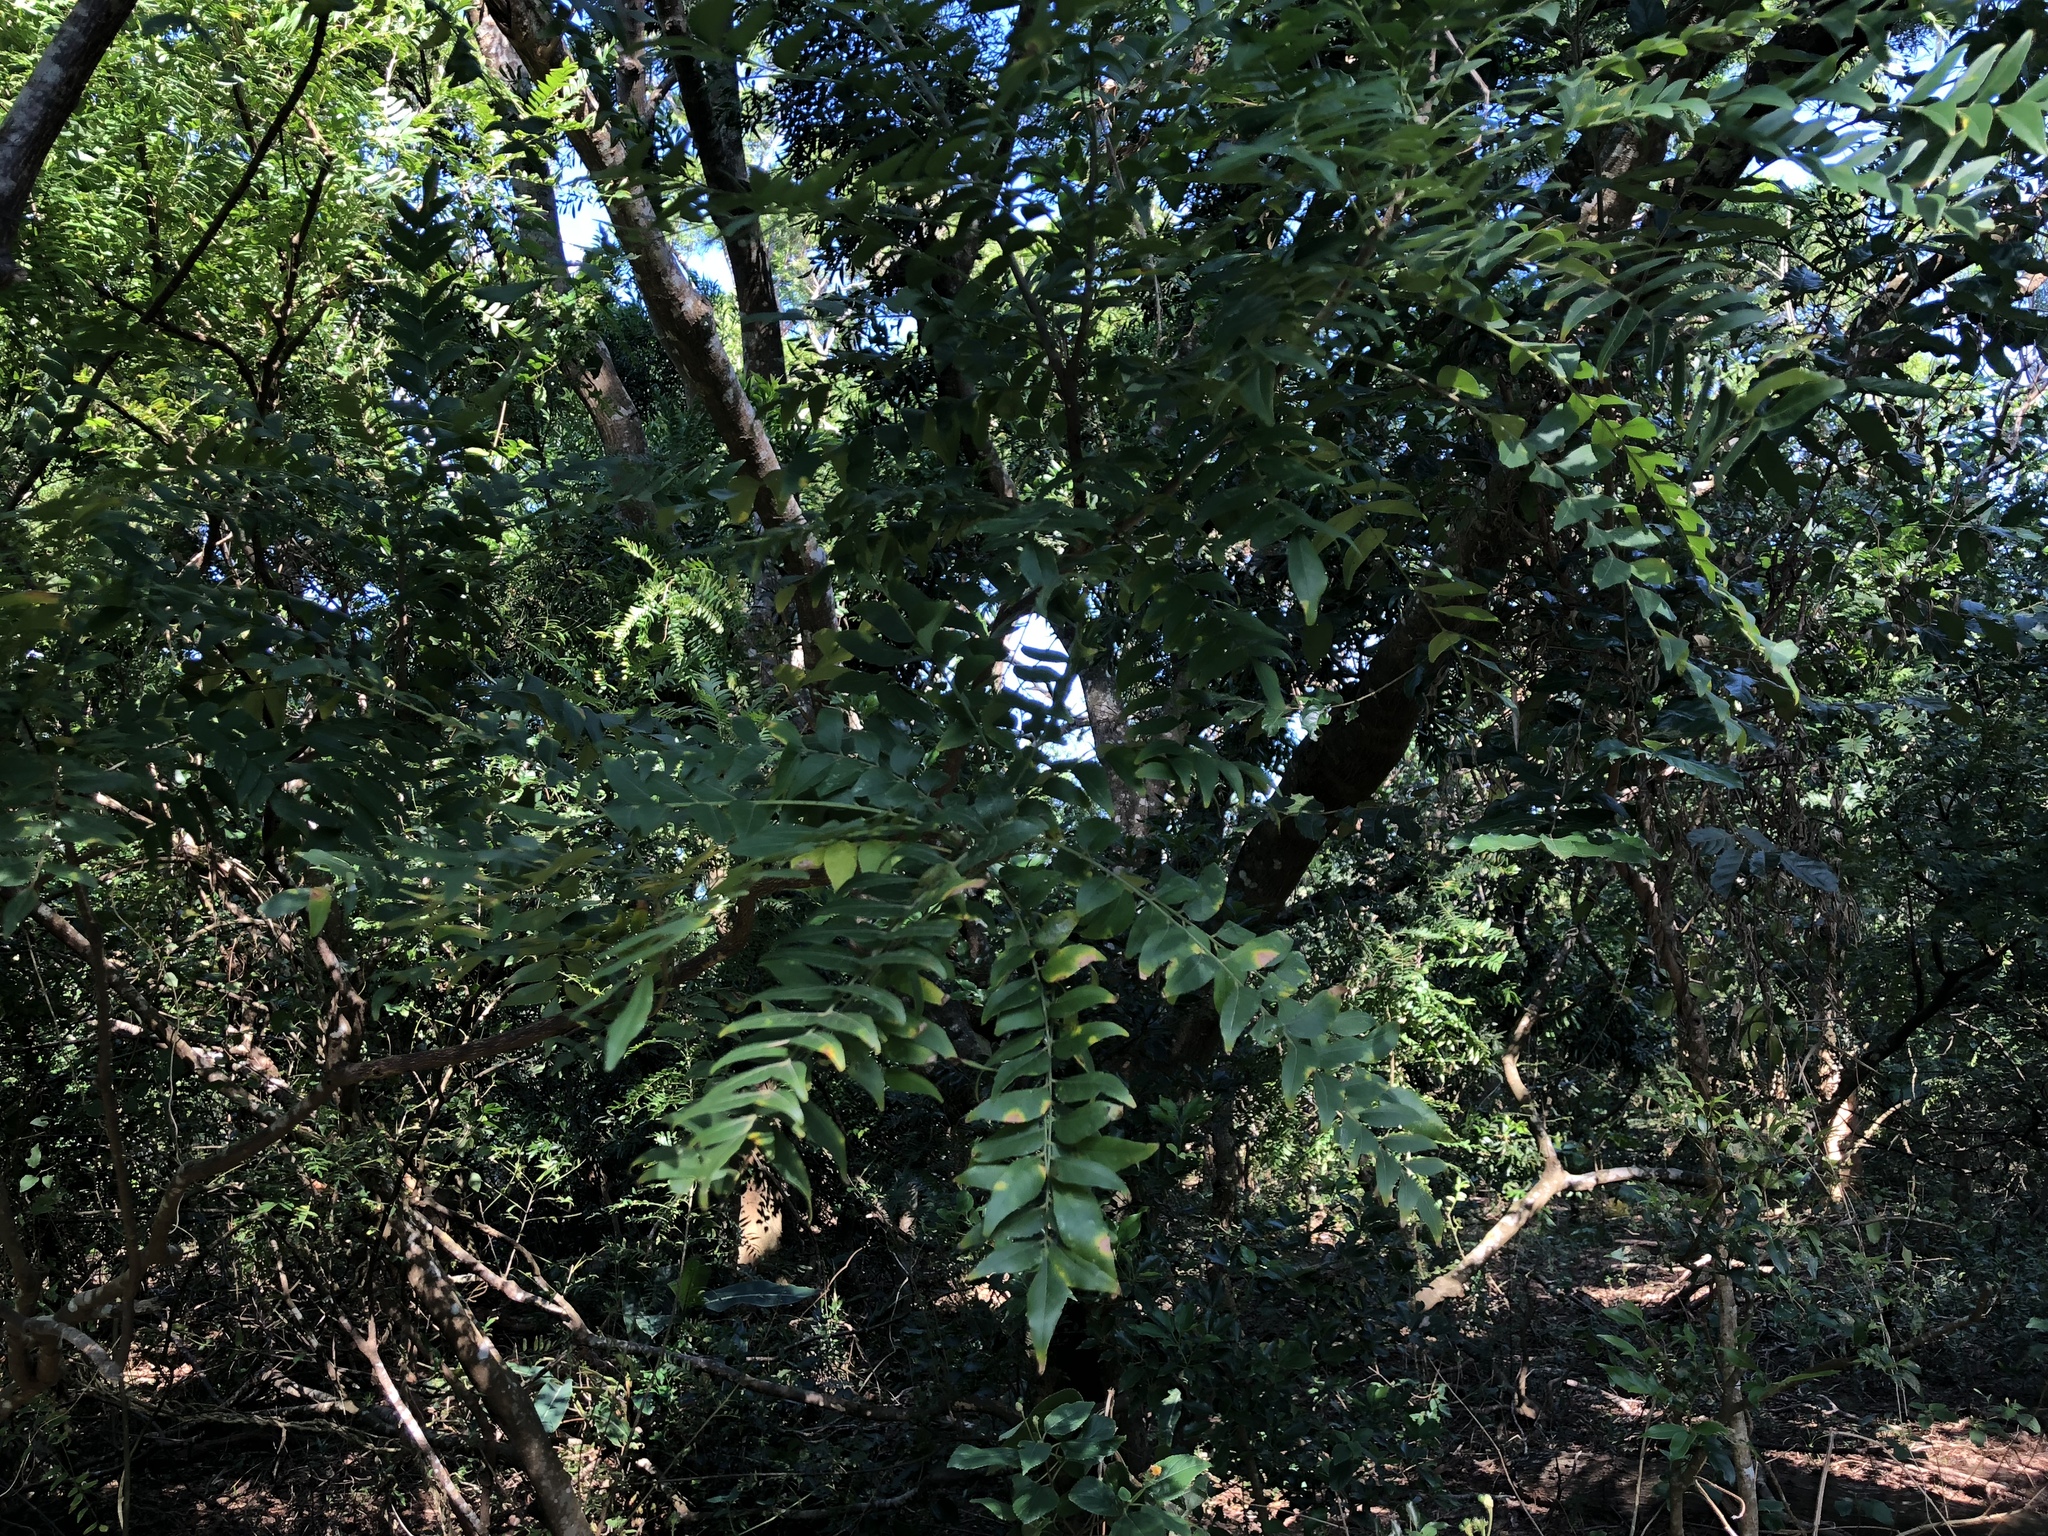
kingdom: Plantae
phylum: Tracheophyta
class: Magnoliopsida
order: Sapindales
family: Rutaceae
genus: Clausena
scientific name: Clausena excavata
